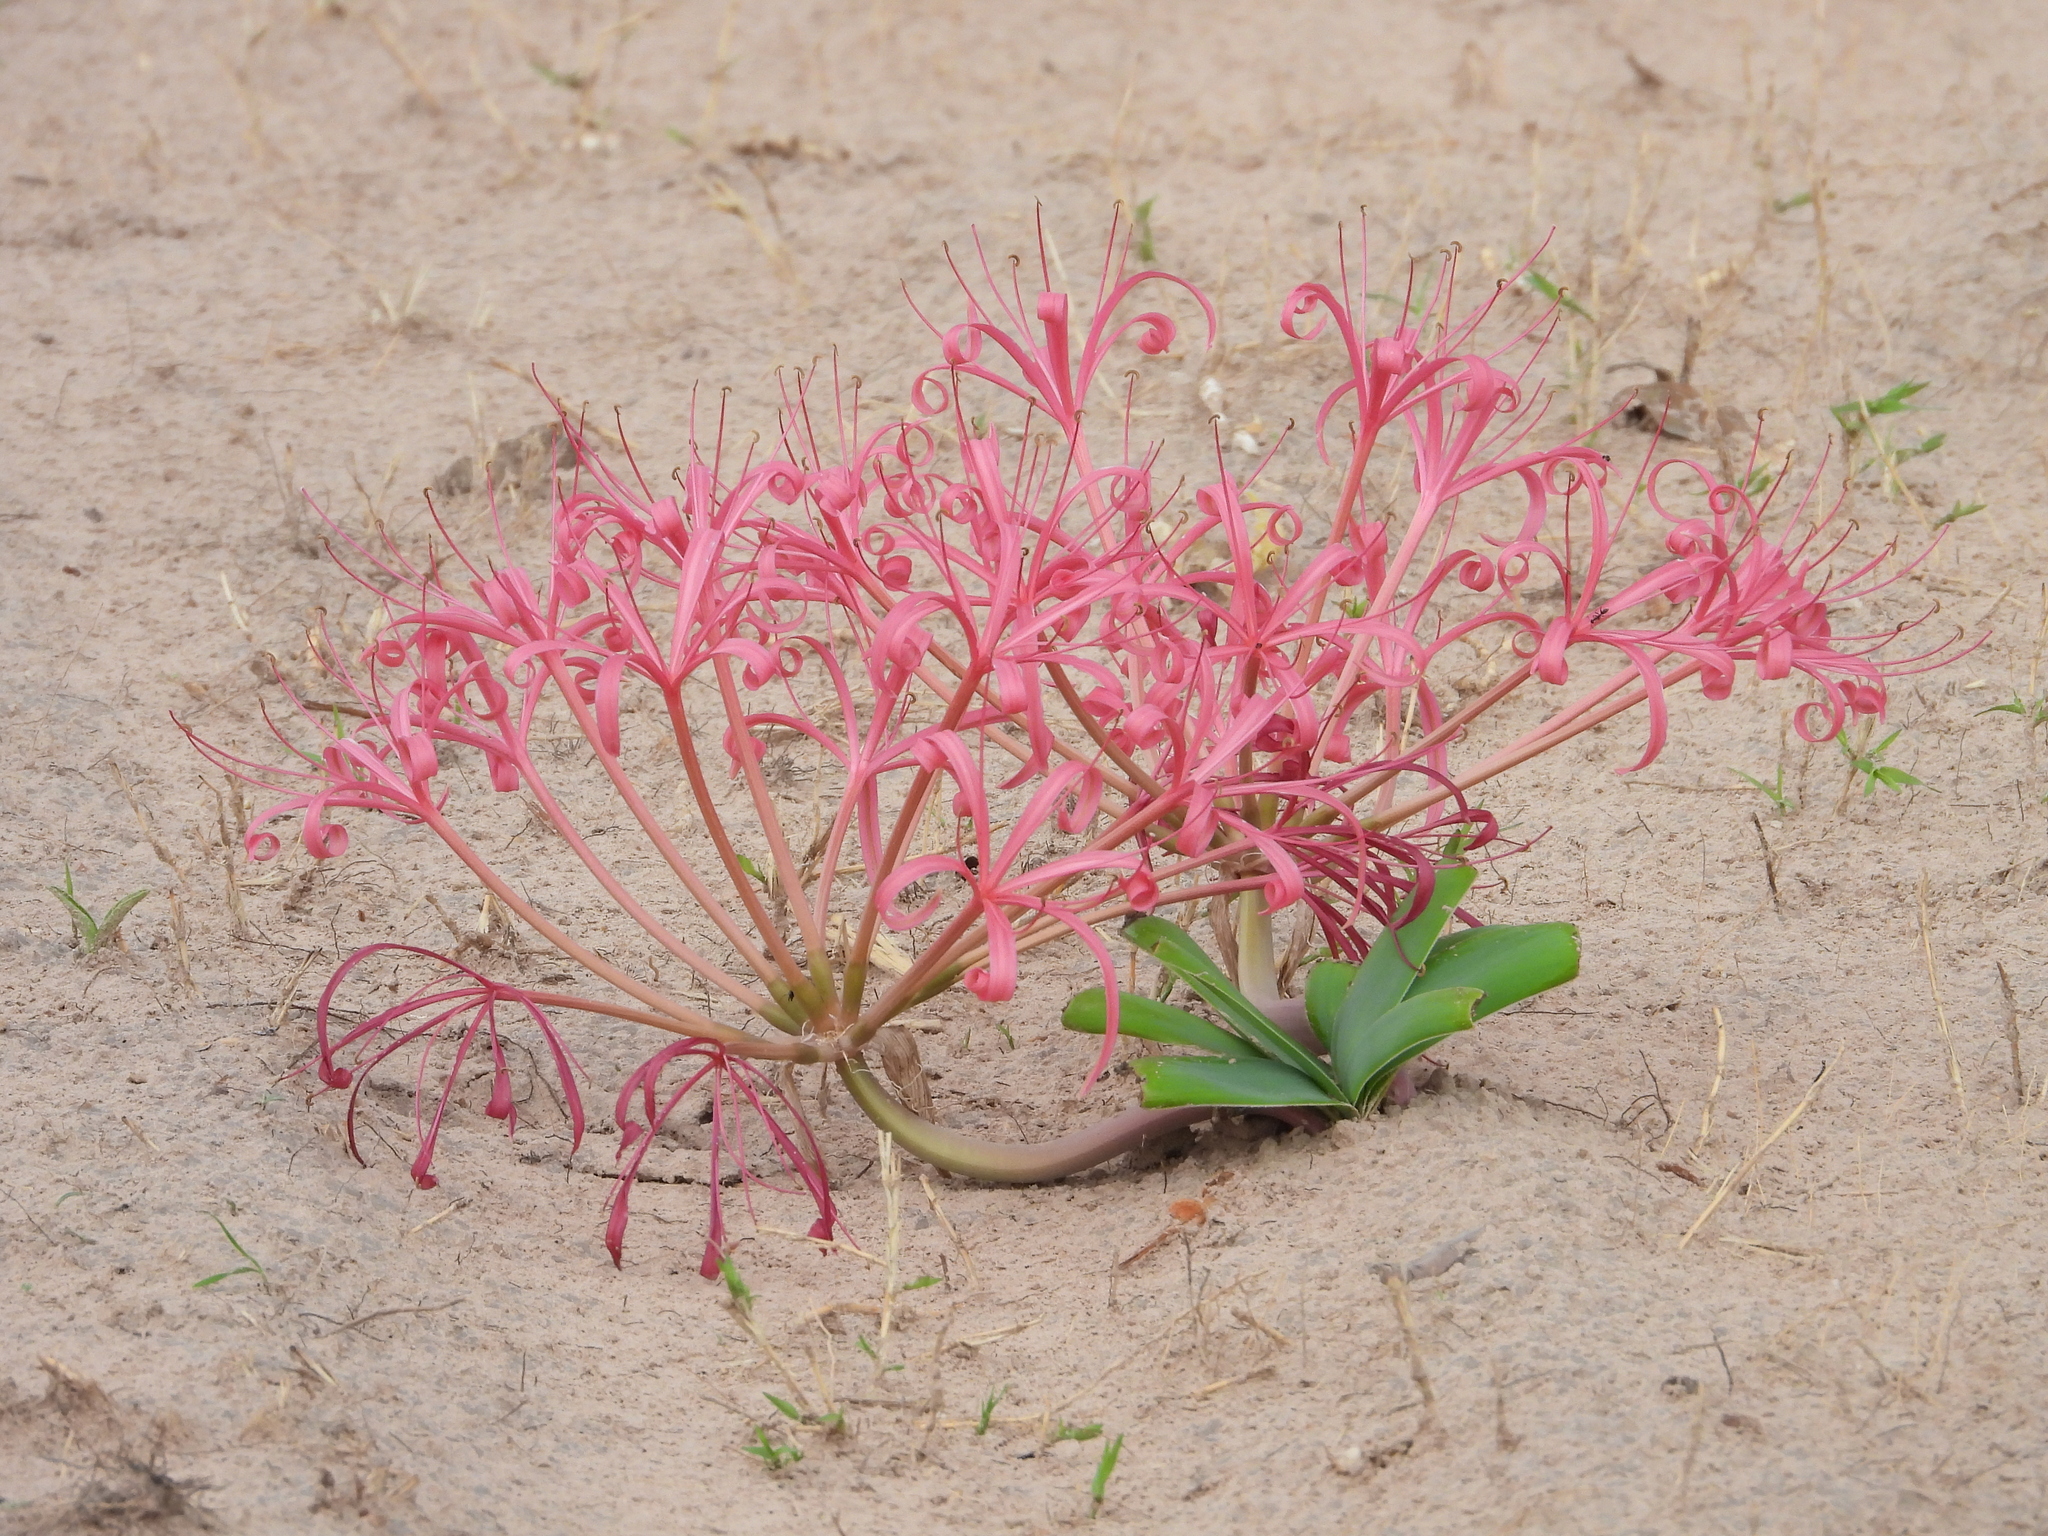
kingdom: Plantae
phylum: Tracheophyta
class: Liliopsida
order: Asparagales
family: Amaryllidaceae
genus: Ammocharis
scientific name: Ammocharis tinneana
